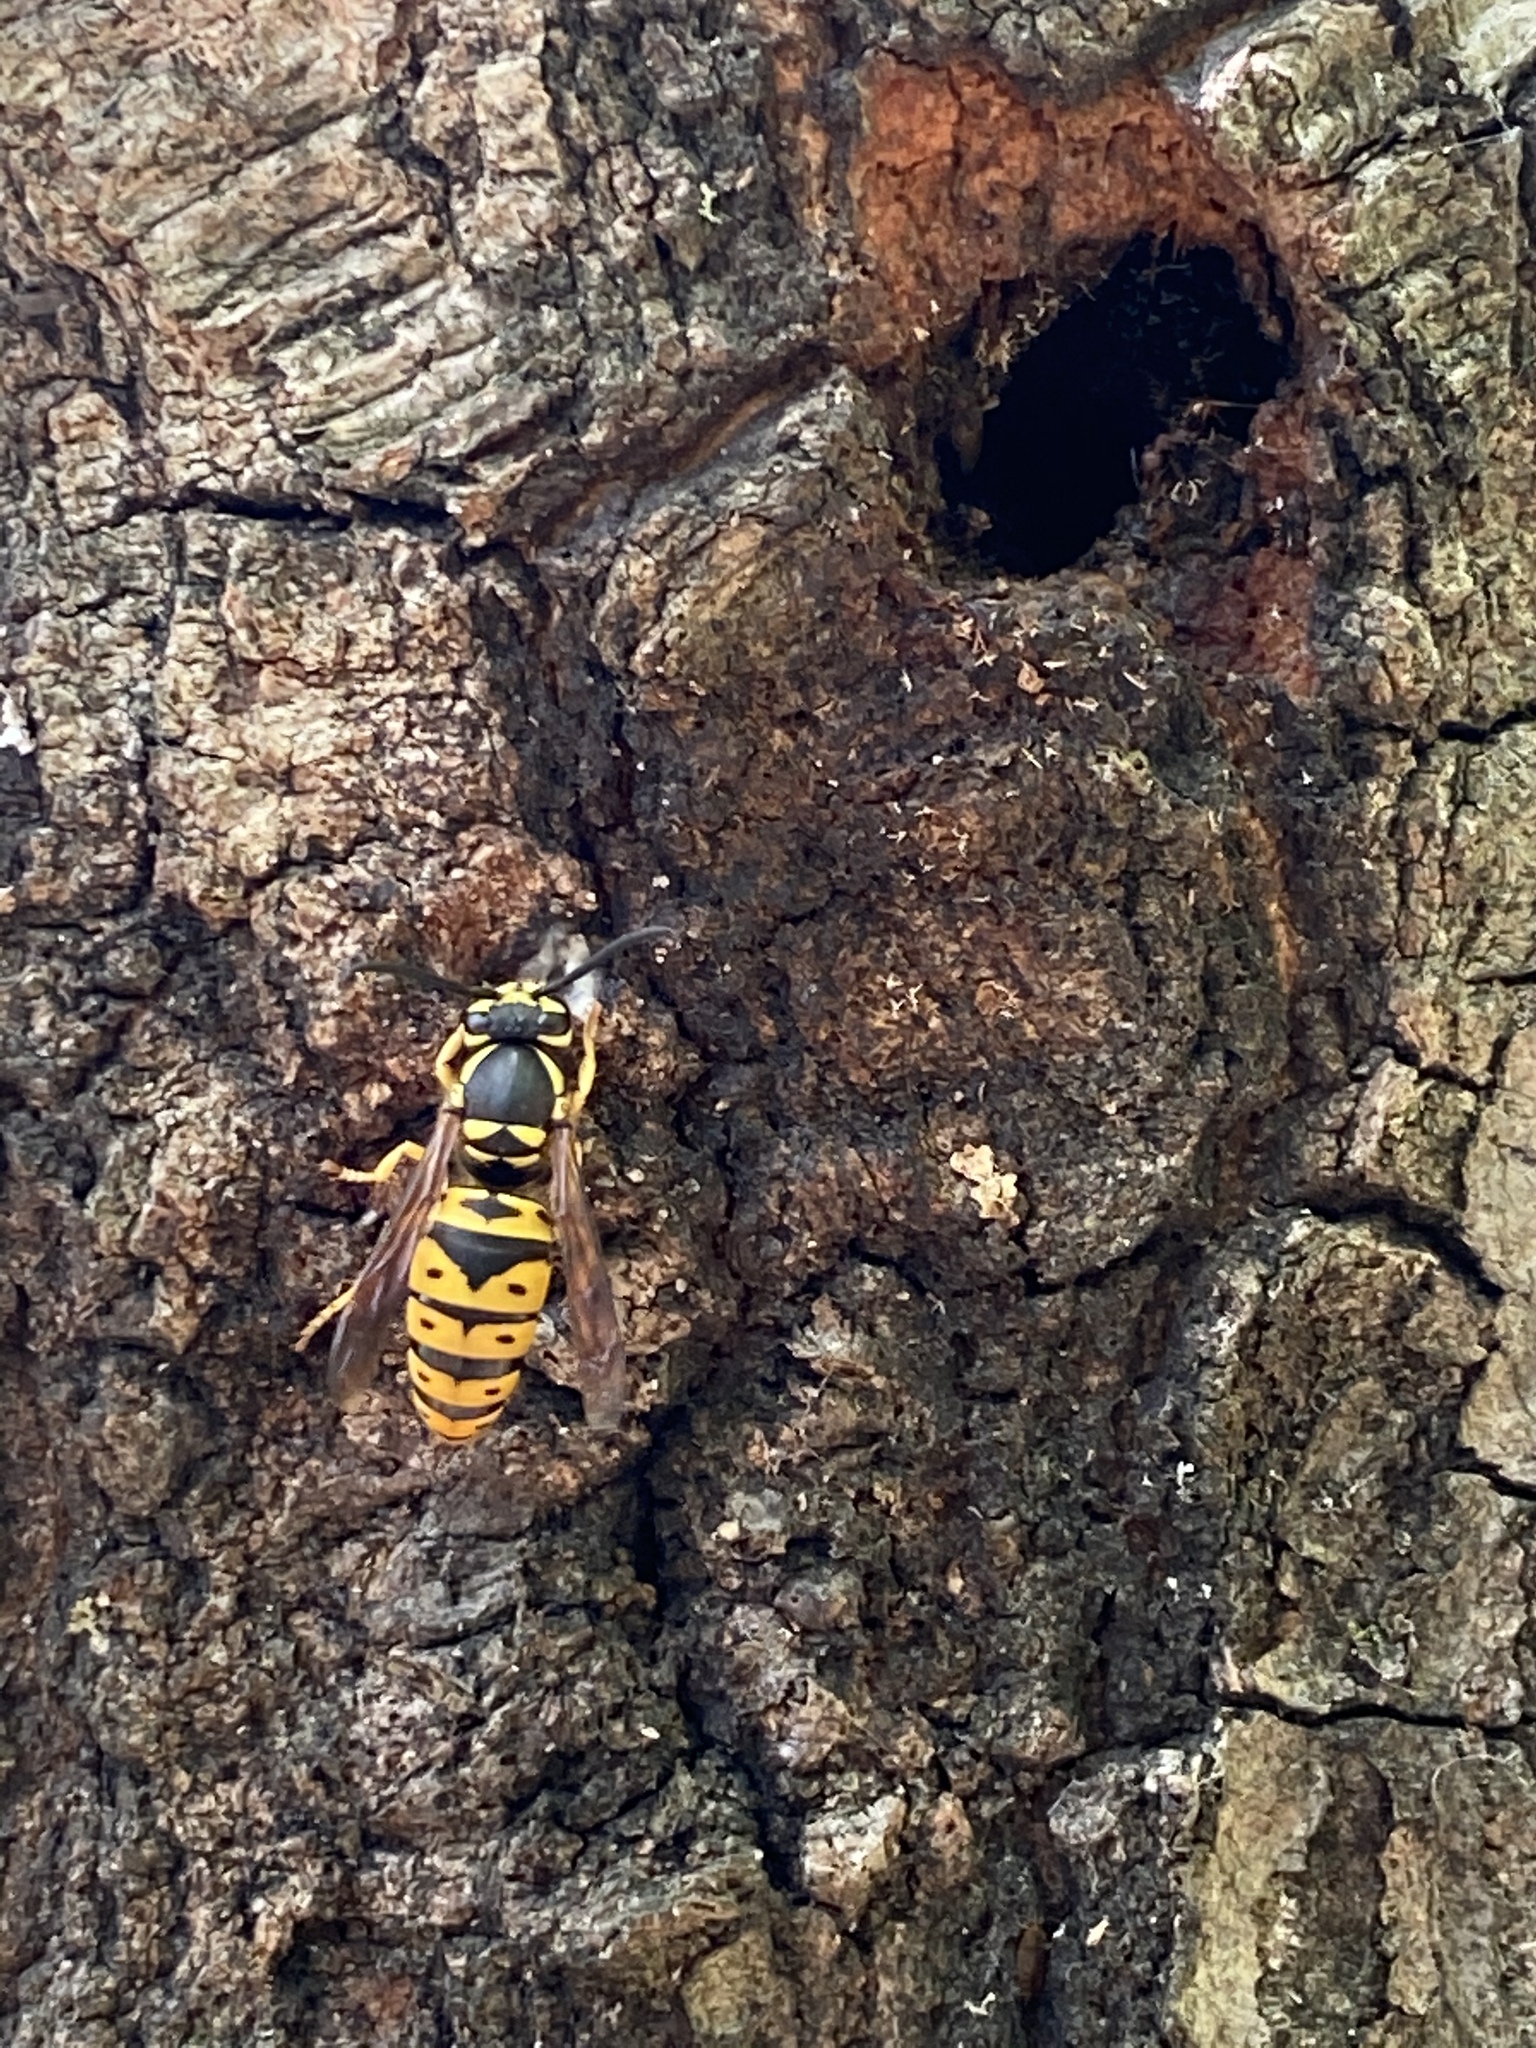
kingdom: Animalia
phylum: Arthropoda
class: Insecta
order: Hymenoptera
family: Vespidae
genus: Vespula
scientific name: Vespula maculifrons
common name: Eastern yellowjacket
